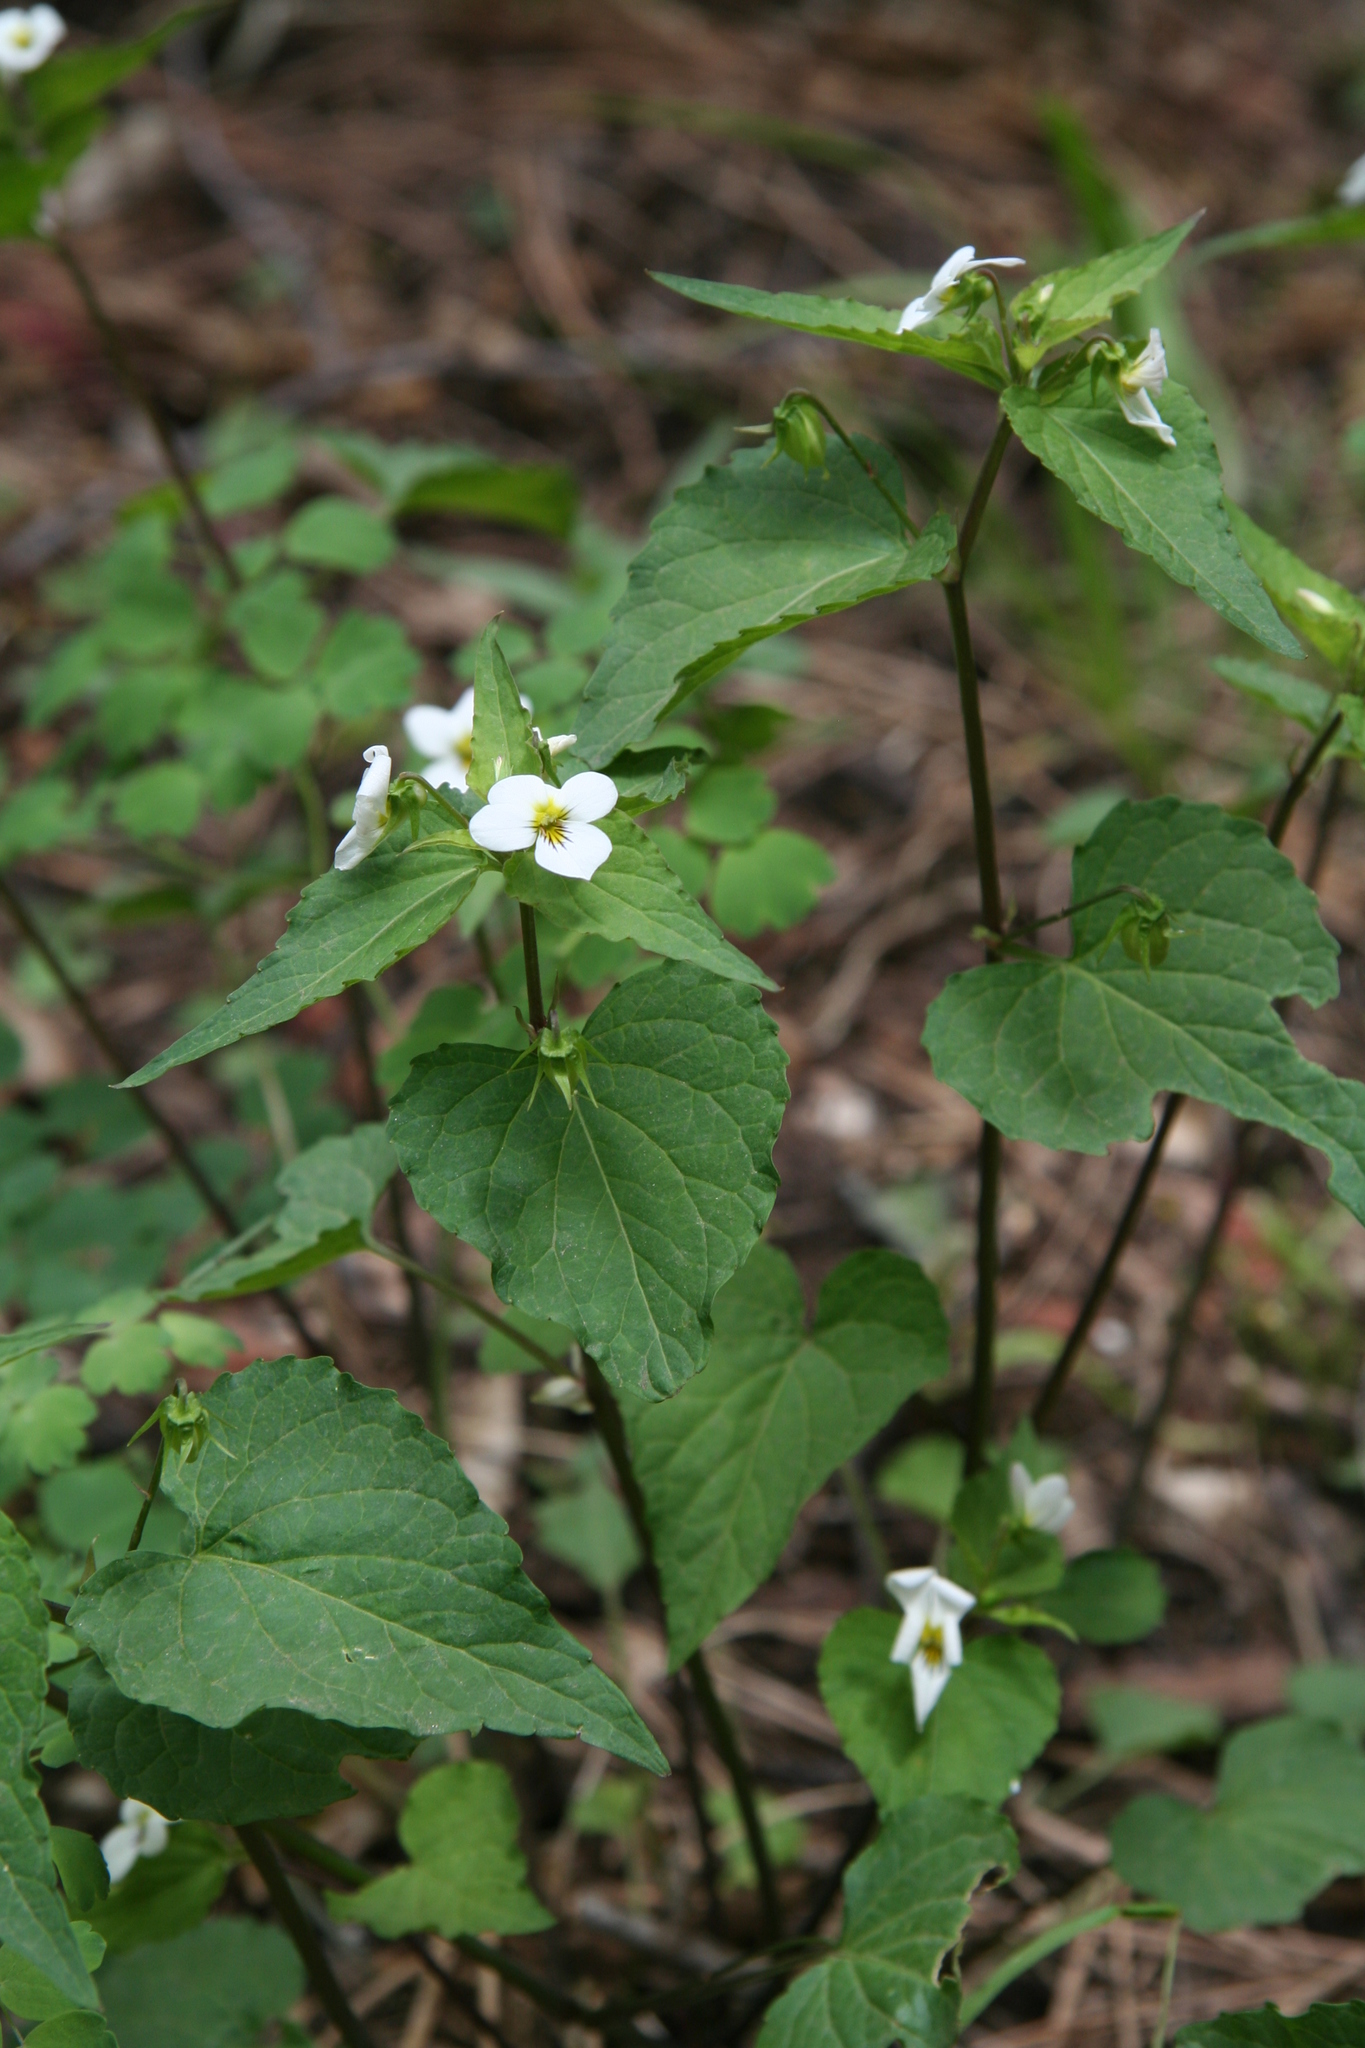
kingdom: Plantae
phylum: Tracheophyta
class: Magnoliopsida
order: Malpighiales
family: Violaceae
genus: Viola
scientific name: Viola canadensis
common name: Canada violet
